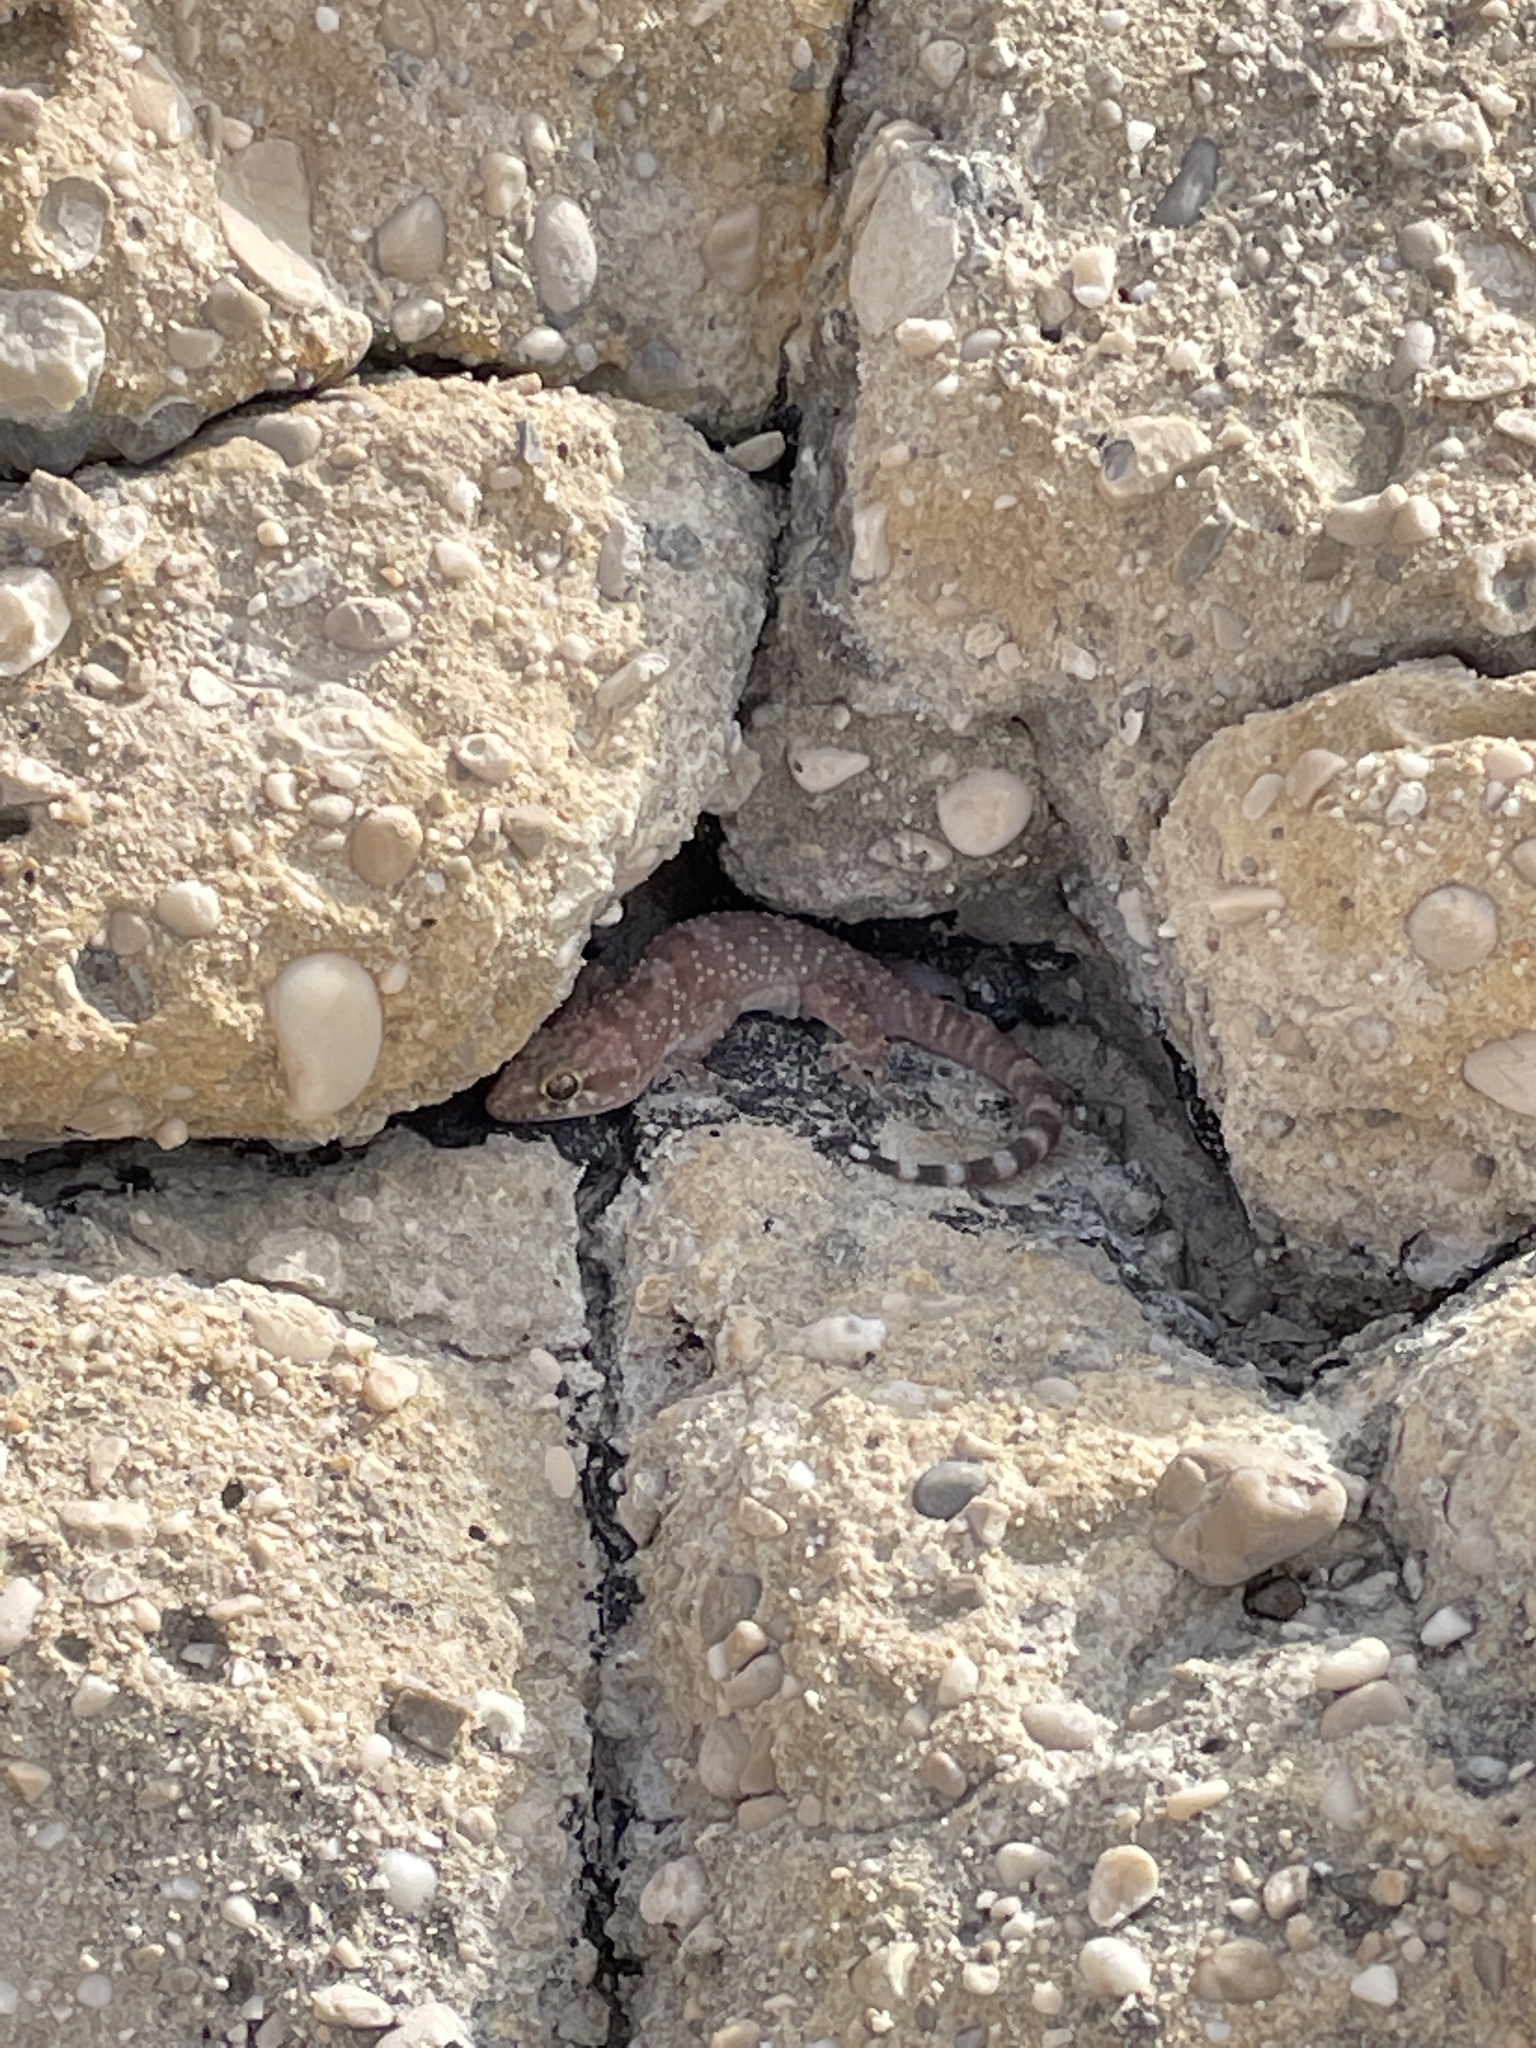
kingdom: Animalia
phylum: Chordata
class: Squamata
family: Gekkonidae
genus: Hemidactylus
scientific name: Hemidactylus turcicus
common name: Turkish gecko
